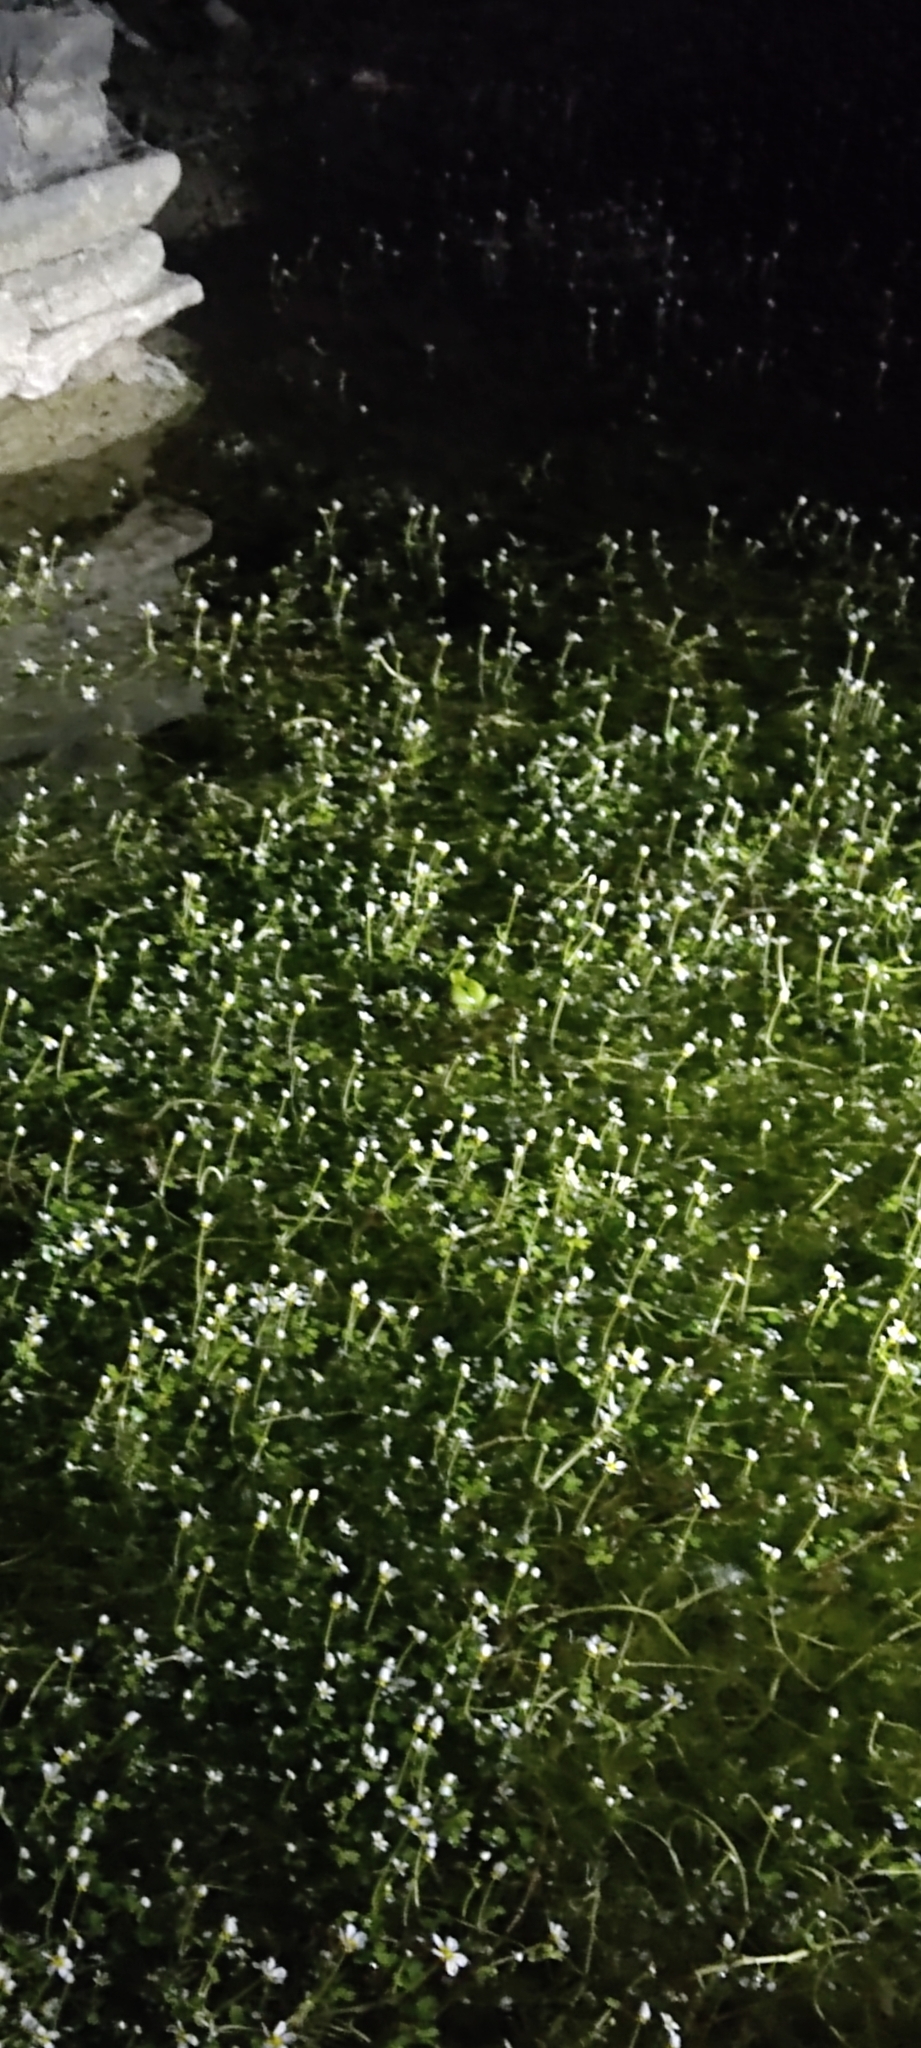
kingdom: Animalia
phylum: Chordata
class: Amphibia
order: Anura
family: Hylidae
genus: Hyla
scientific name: Hyla meridionalis
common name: Stripeless tree frog
